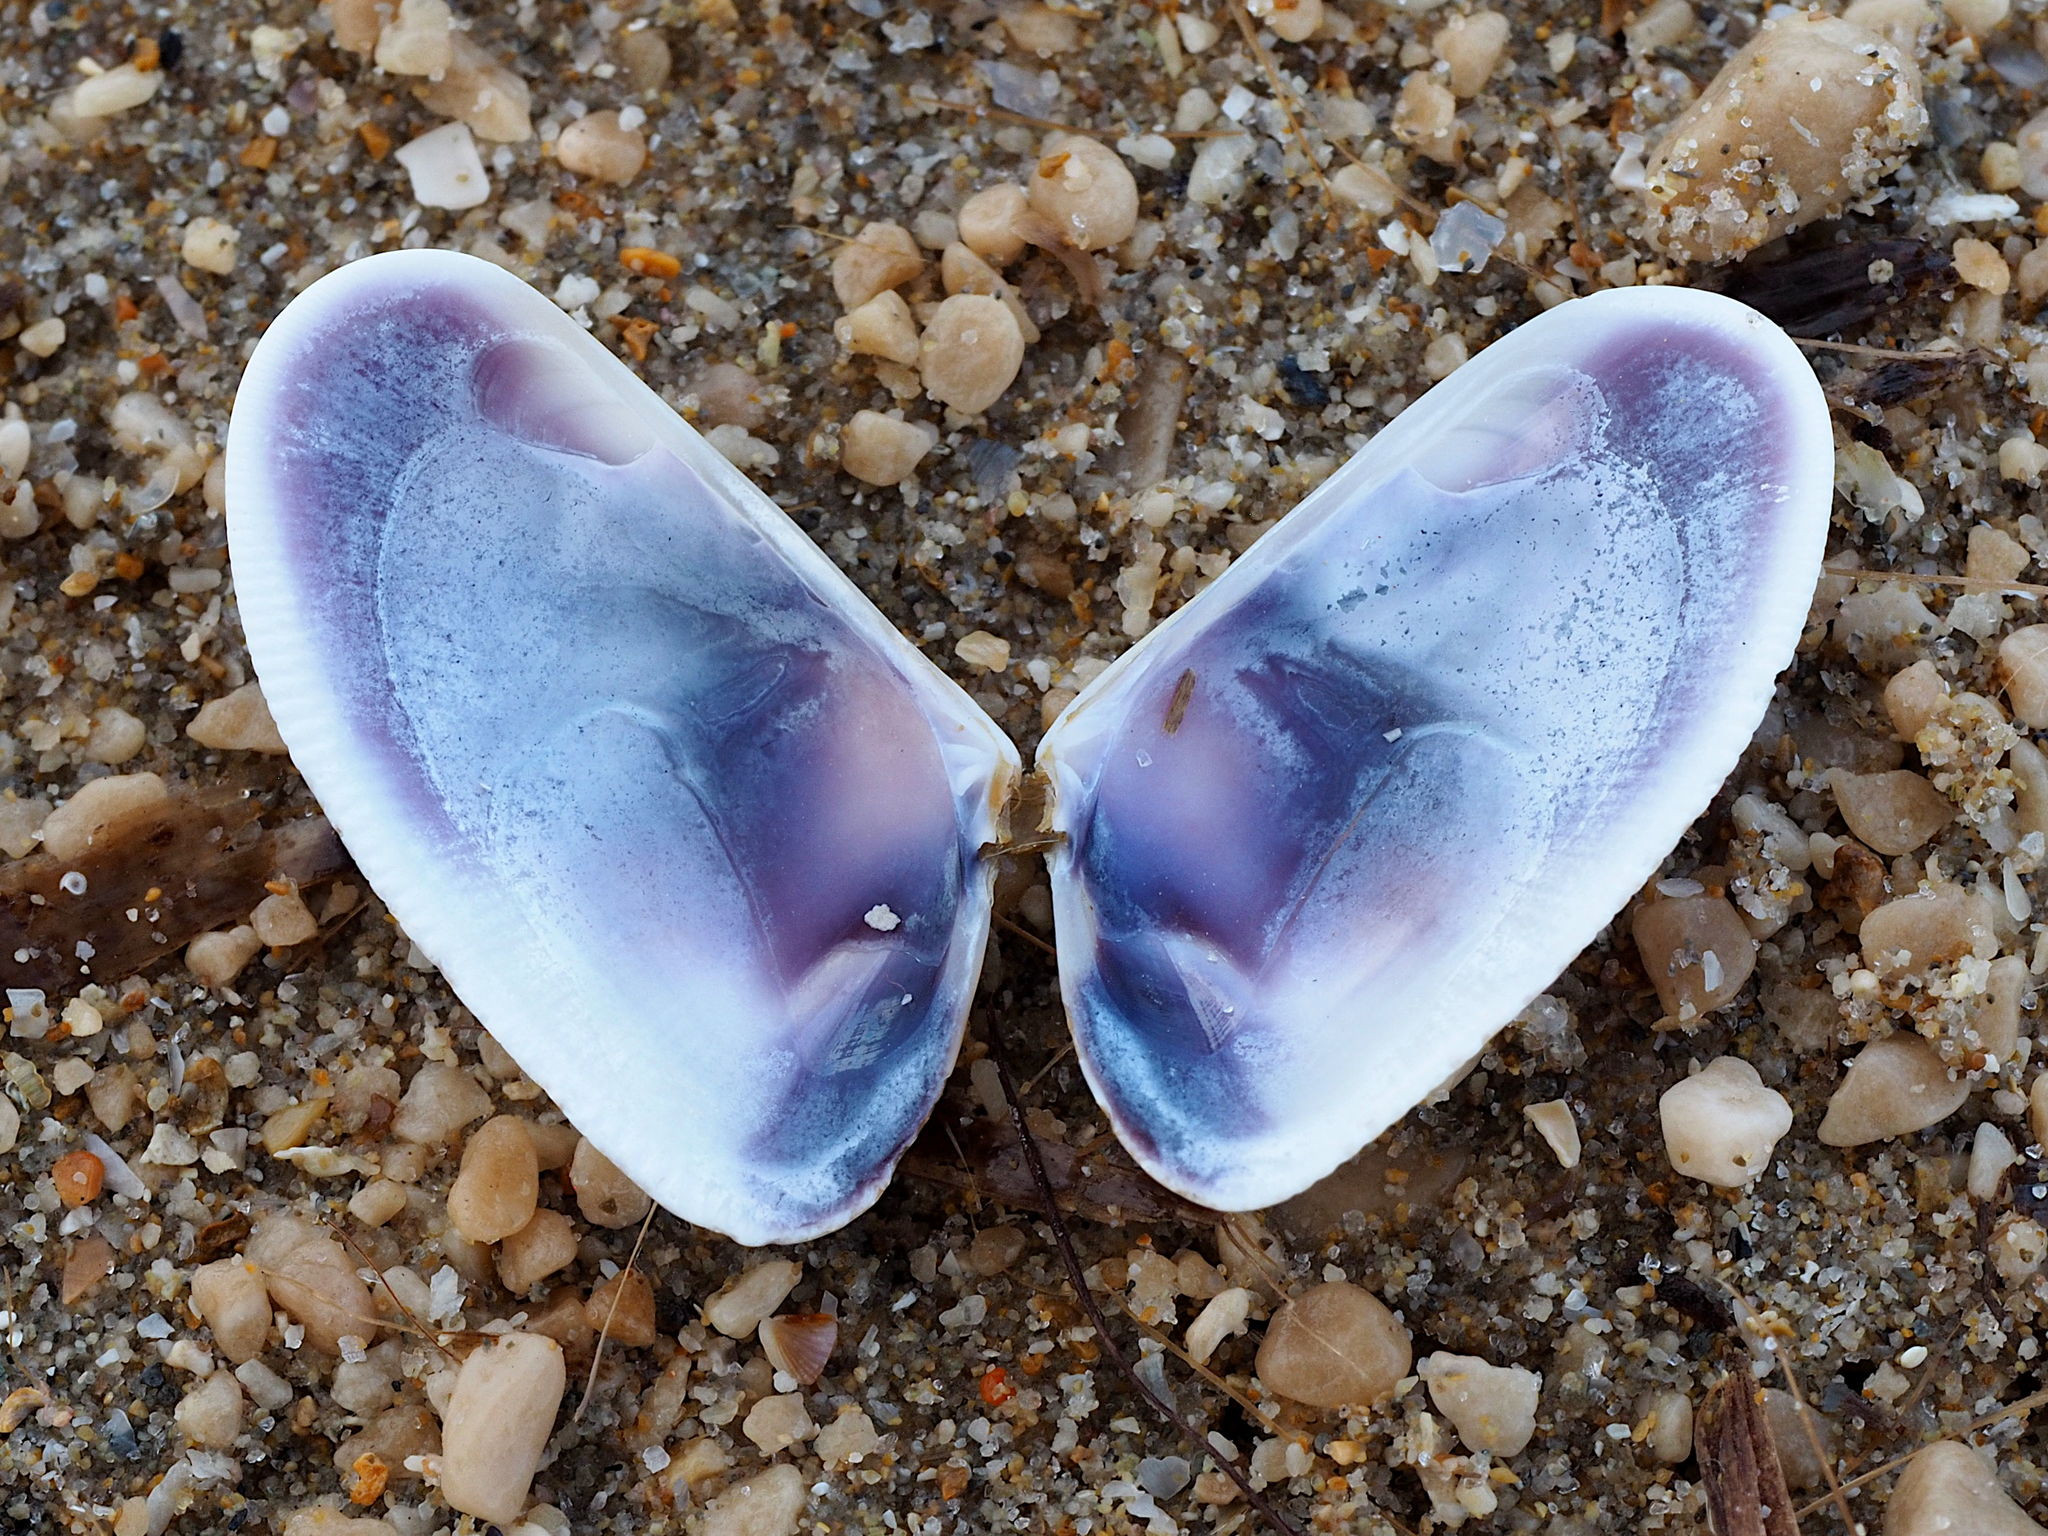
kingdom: Animalia
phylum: Mollusca
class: Bivalvia
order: Cardiida
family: Donacidae
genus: Donax
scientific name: Donax trunculus
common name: Truncate donax
